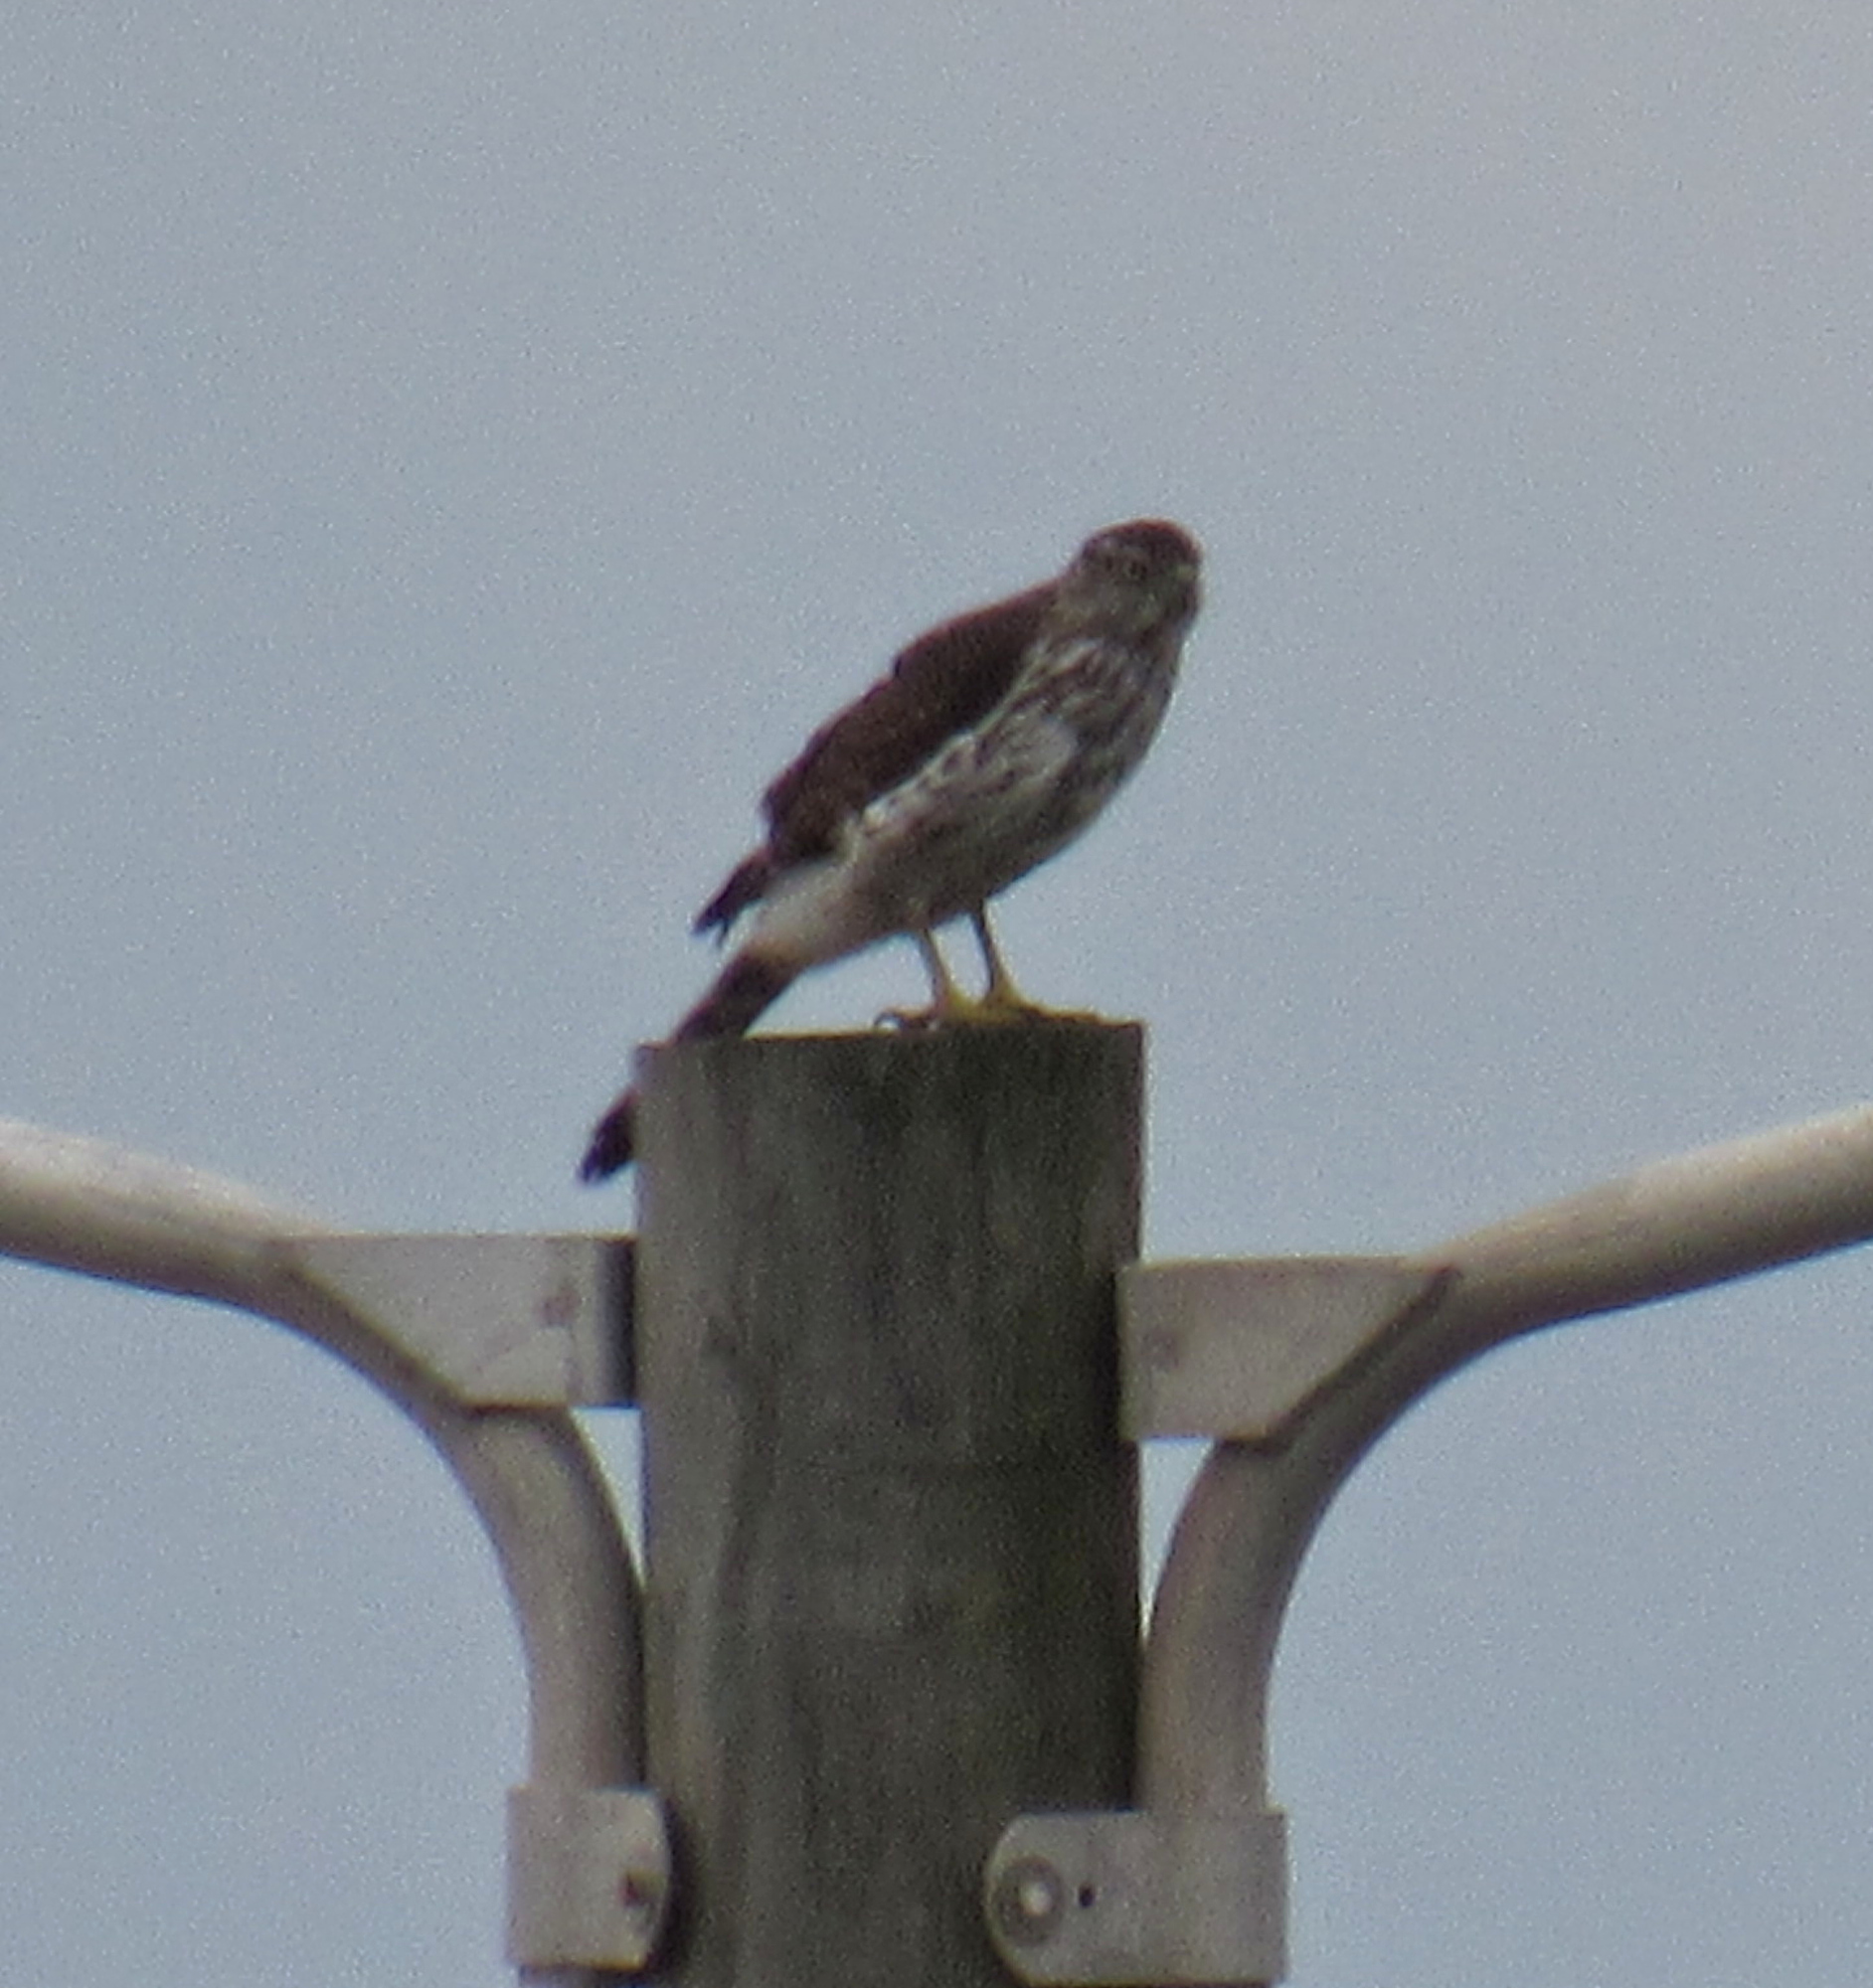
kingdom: Animalia
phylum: Chordata
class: Aves
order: Accipitriformes
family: Accipitridae
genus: Accipiter
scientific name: Accipiter cooperii
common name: Cooper's hawk
